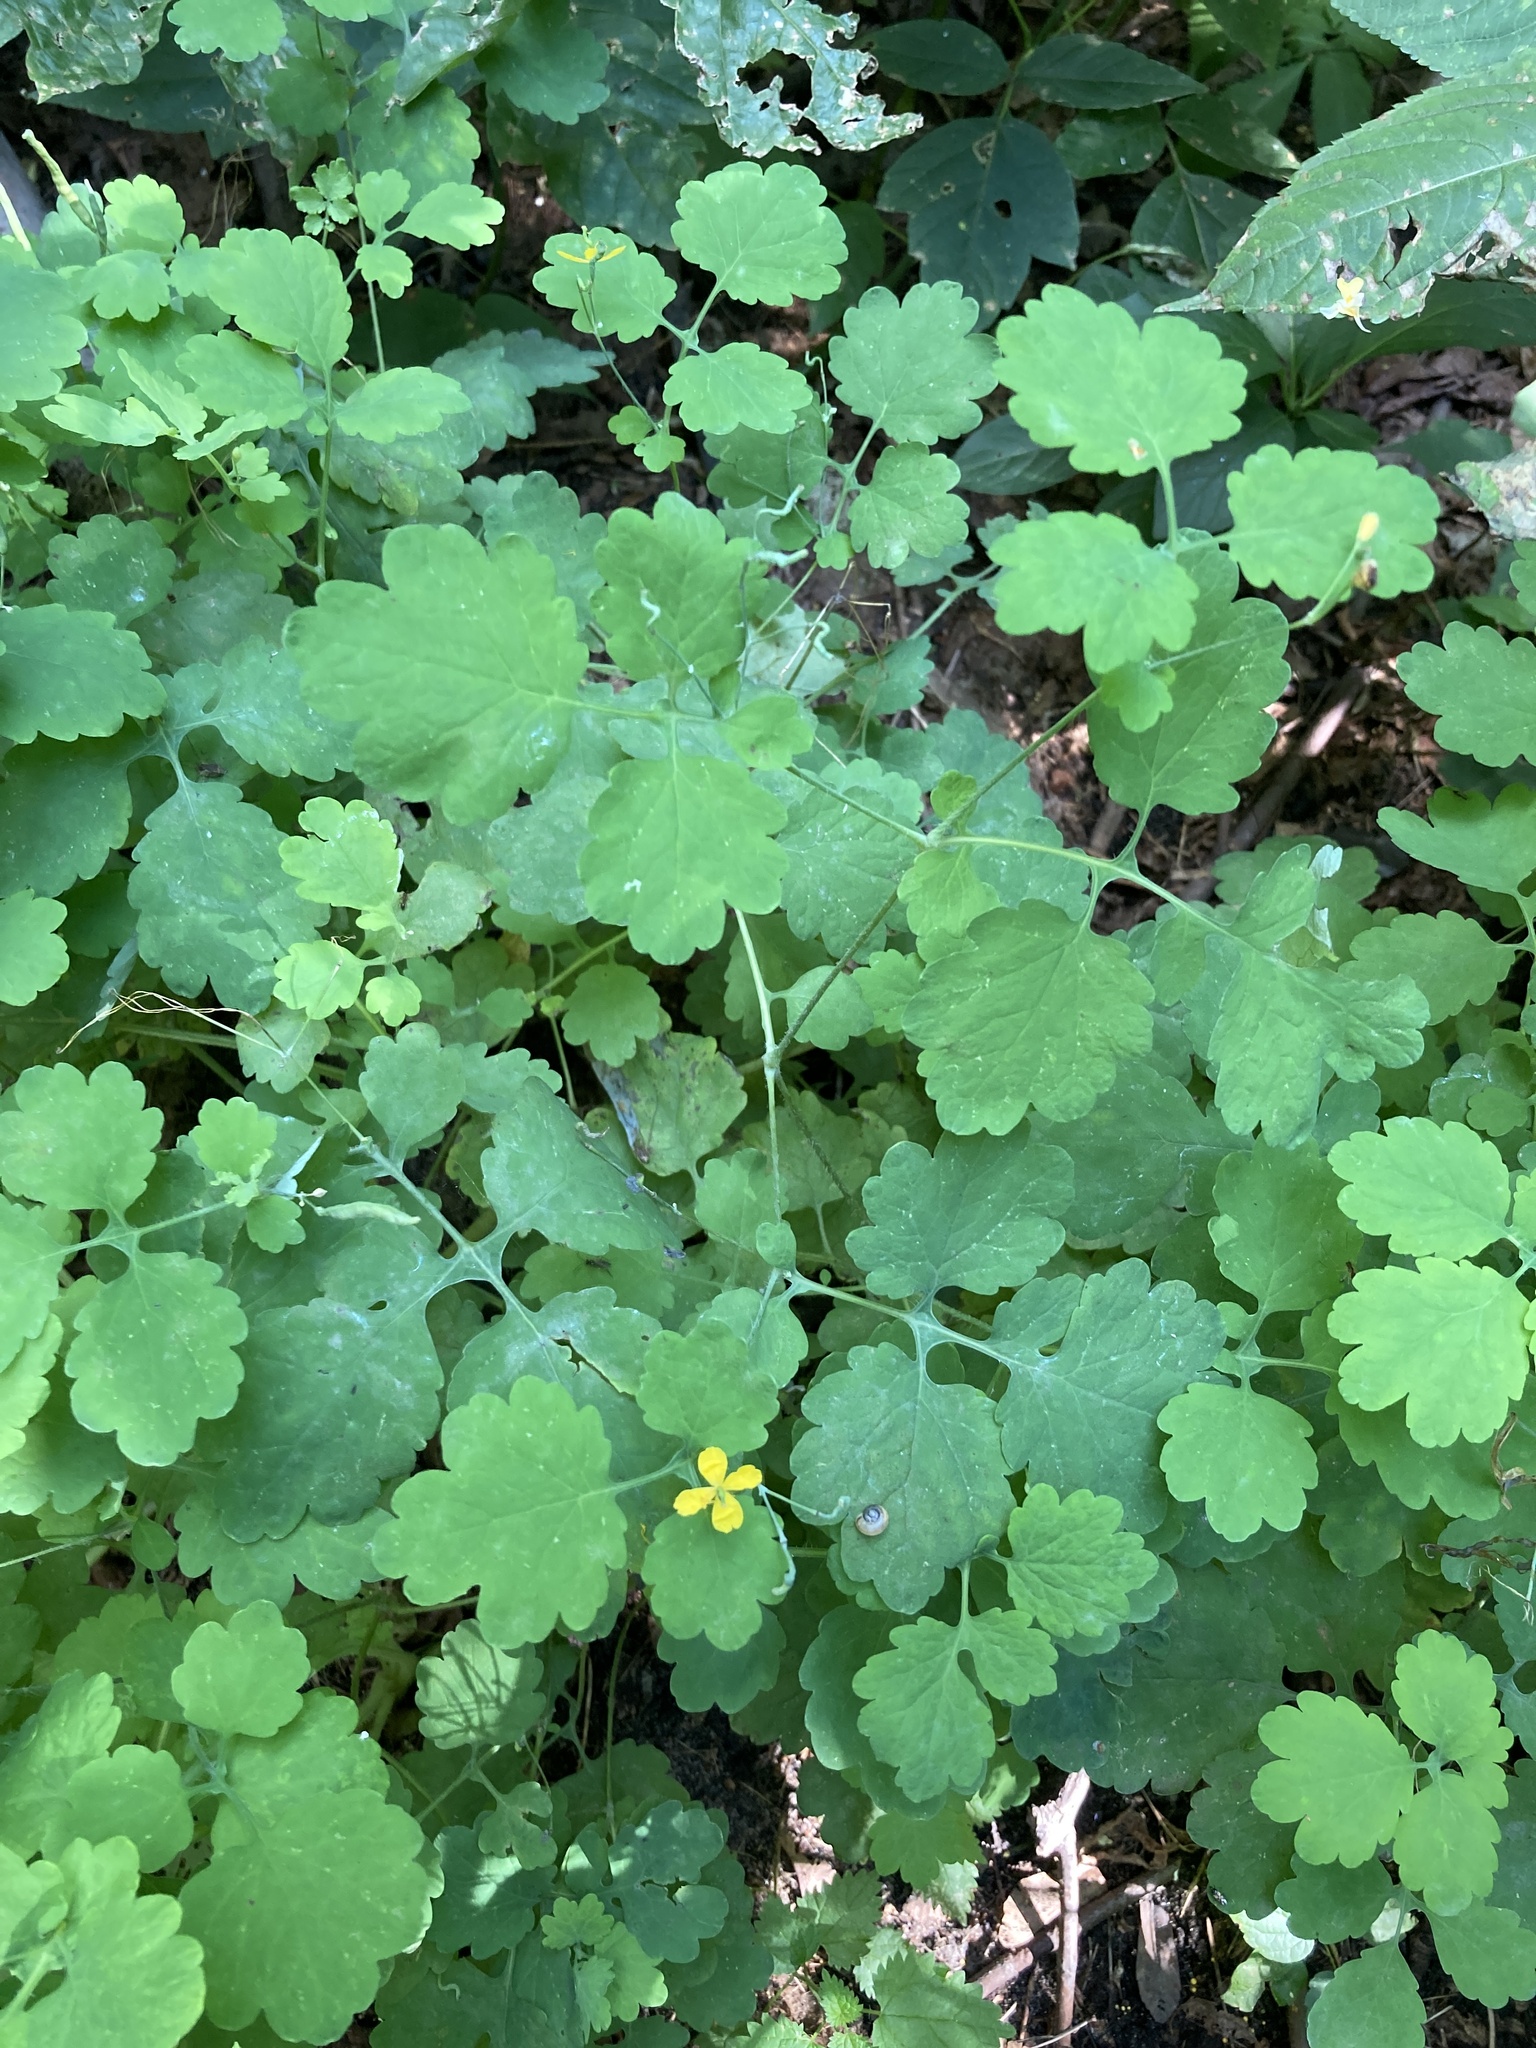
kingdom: Plantae
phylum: Tracheophyta
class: Magnoliopsida
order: Ranunculales
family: Papaveraceae
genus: Chelidonium
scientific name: Chelidonium majus
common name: Greater celandine
